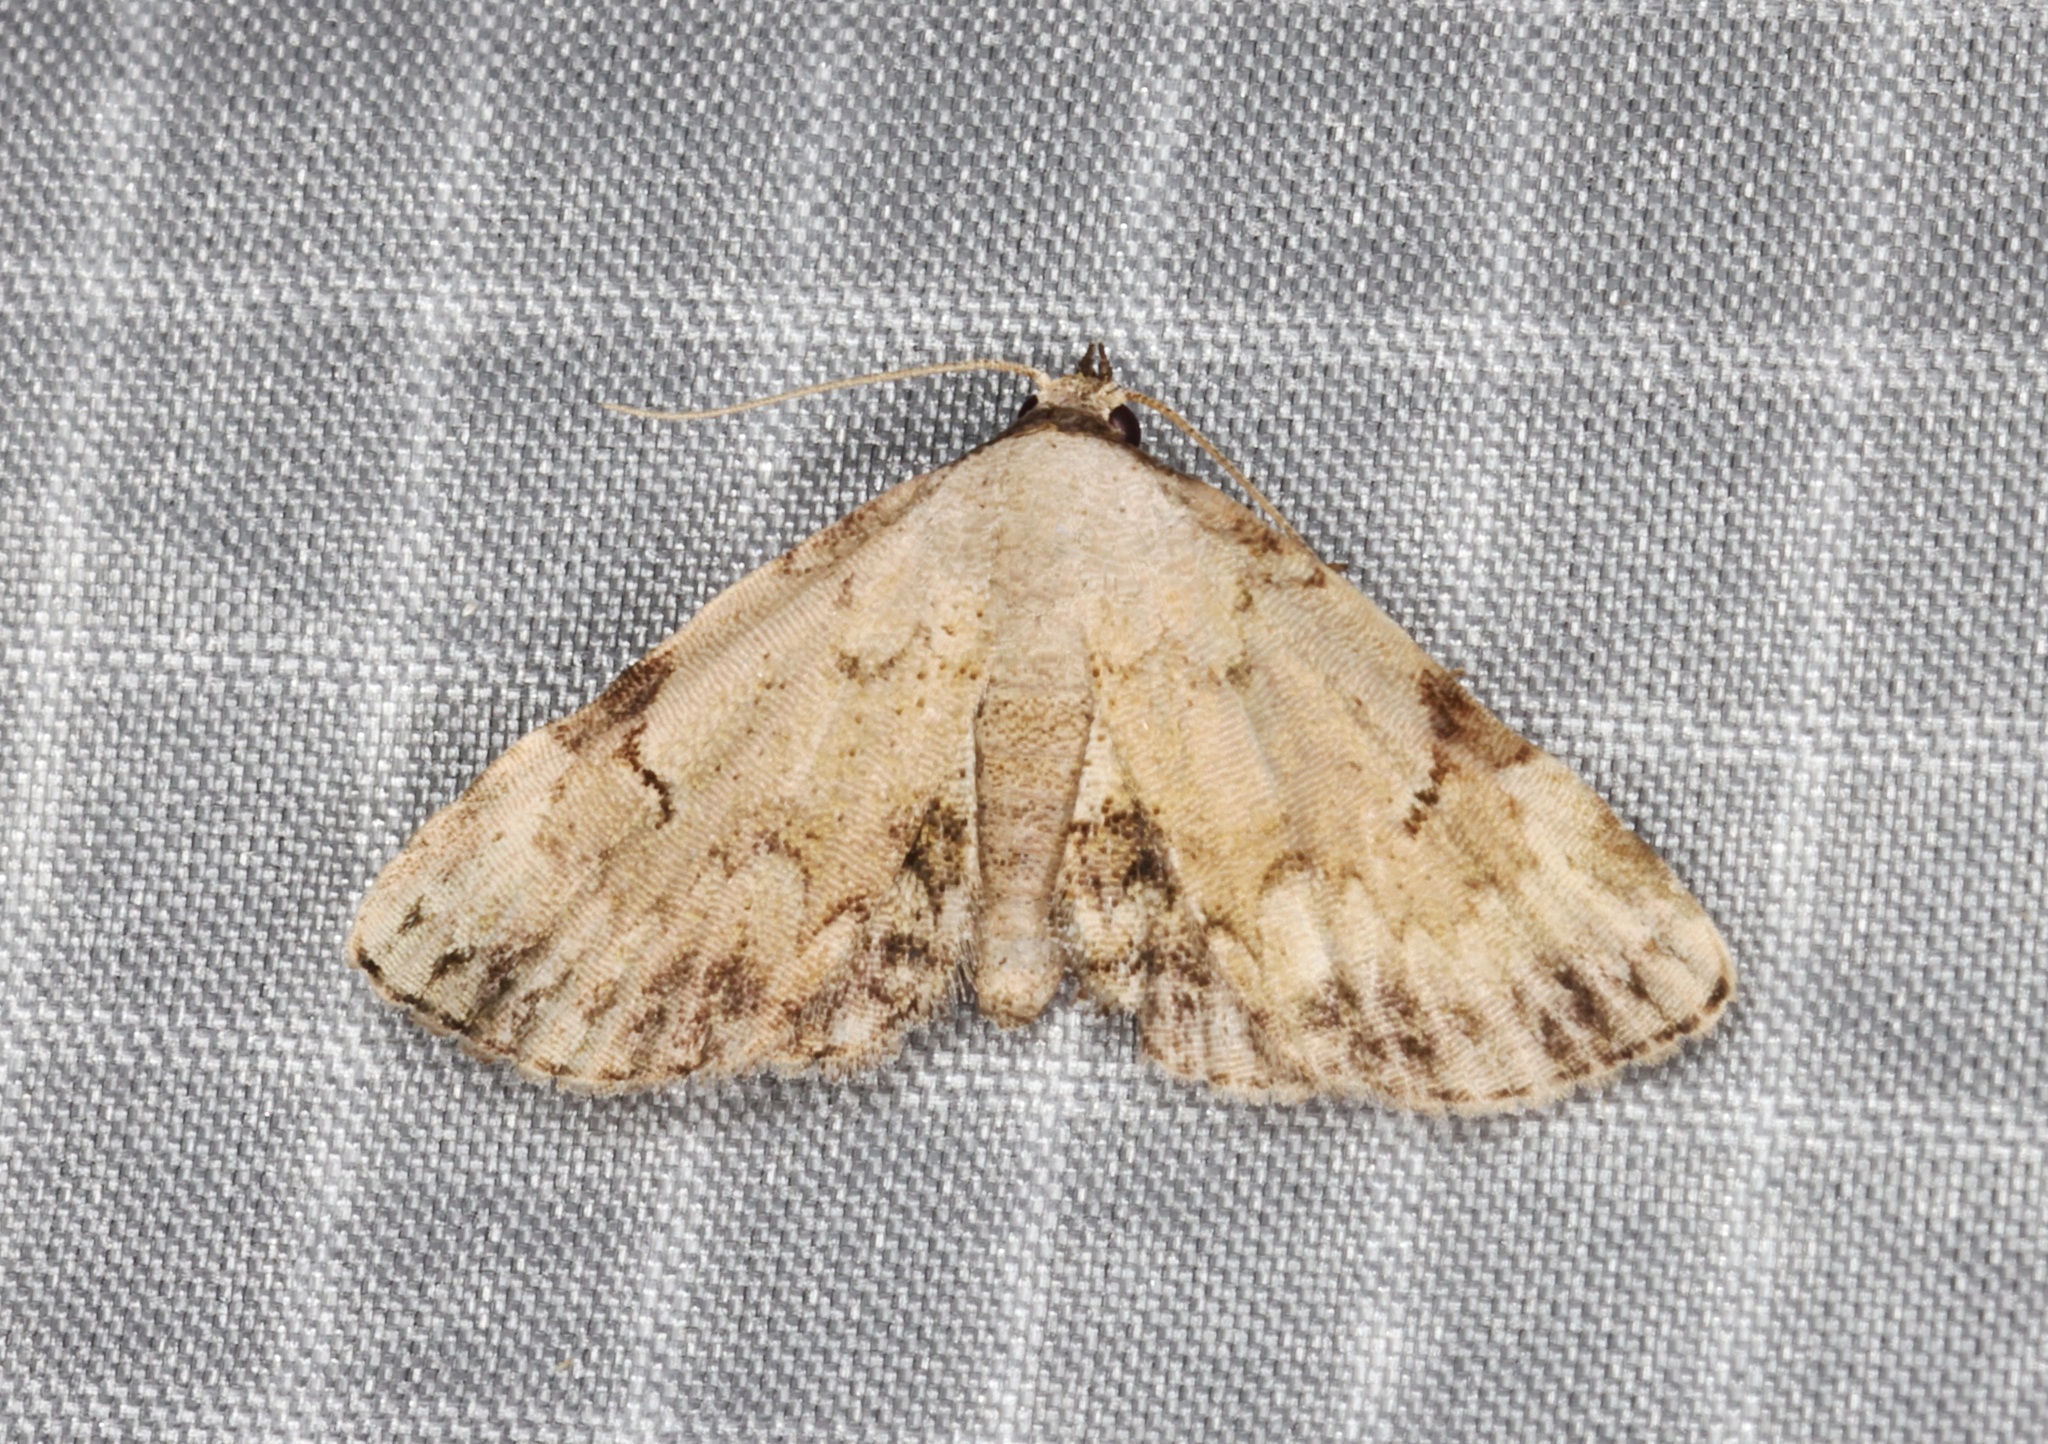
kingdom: Animalia
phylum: Arthropoda
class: Insecta
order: Lepidoptera
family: Noctuidae
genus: Mataeomera
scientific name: Mataeomera semialba
